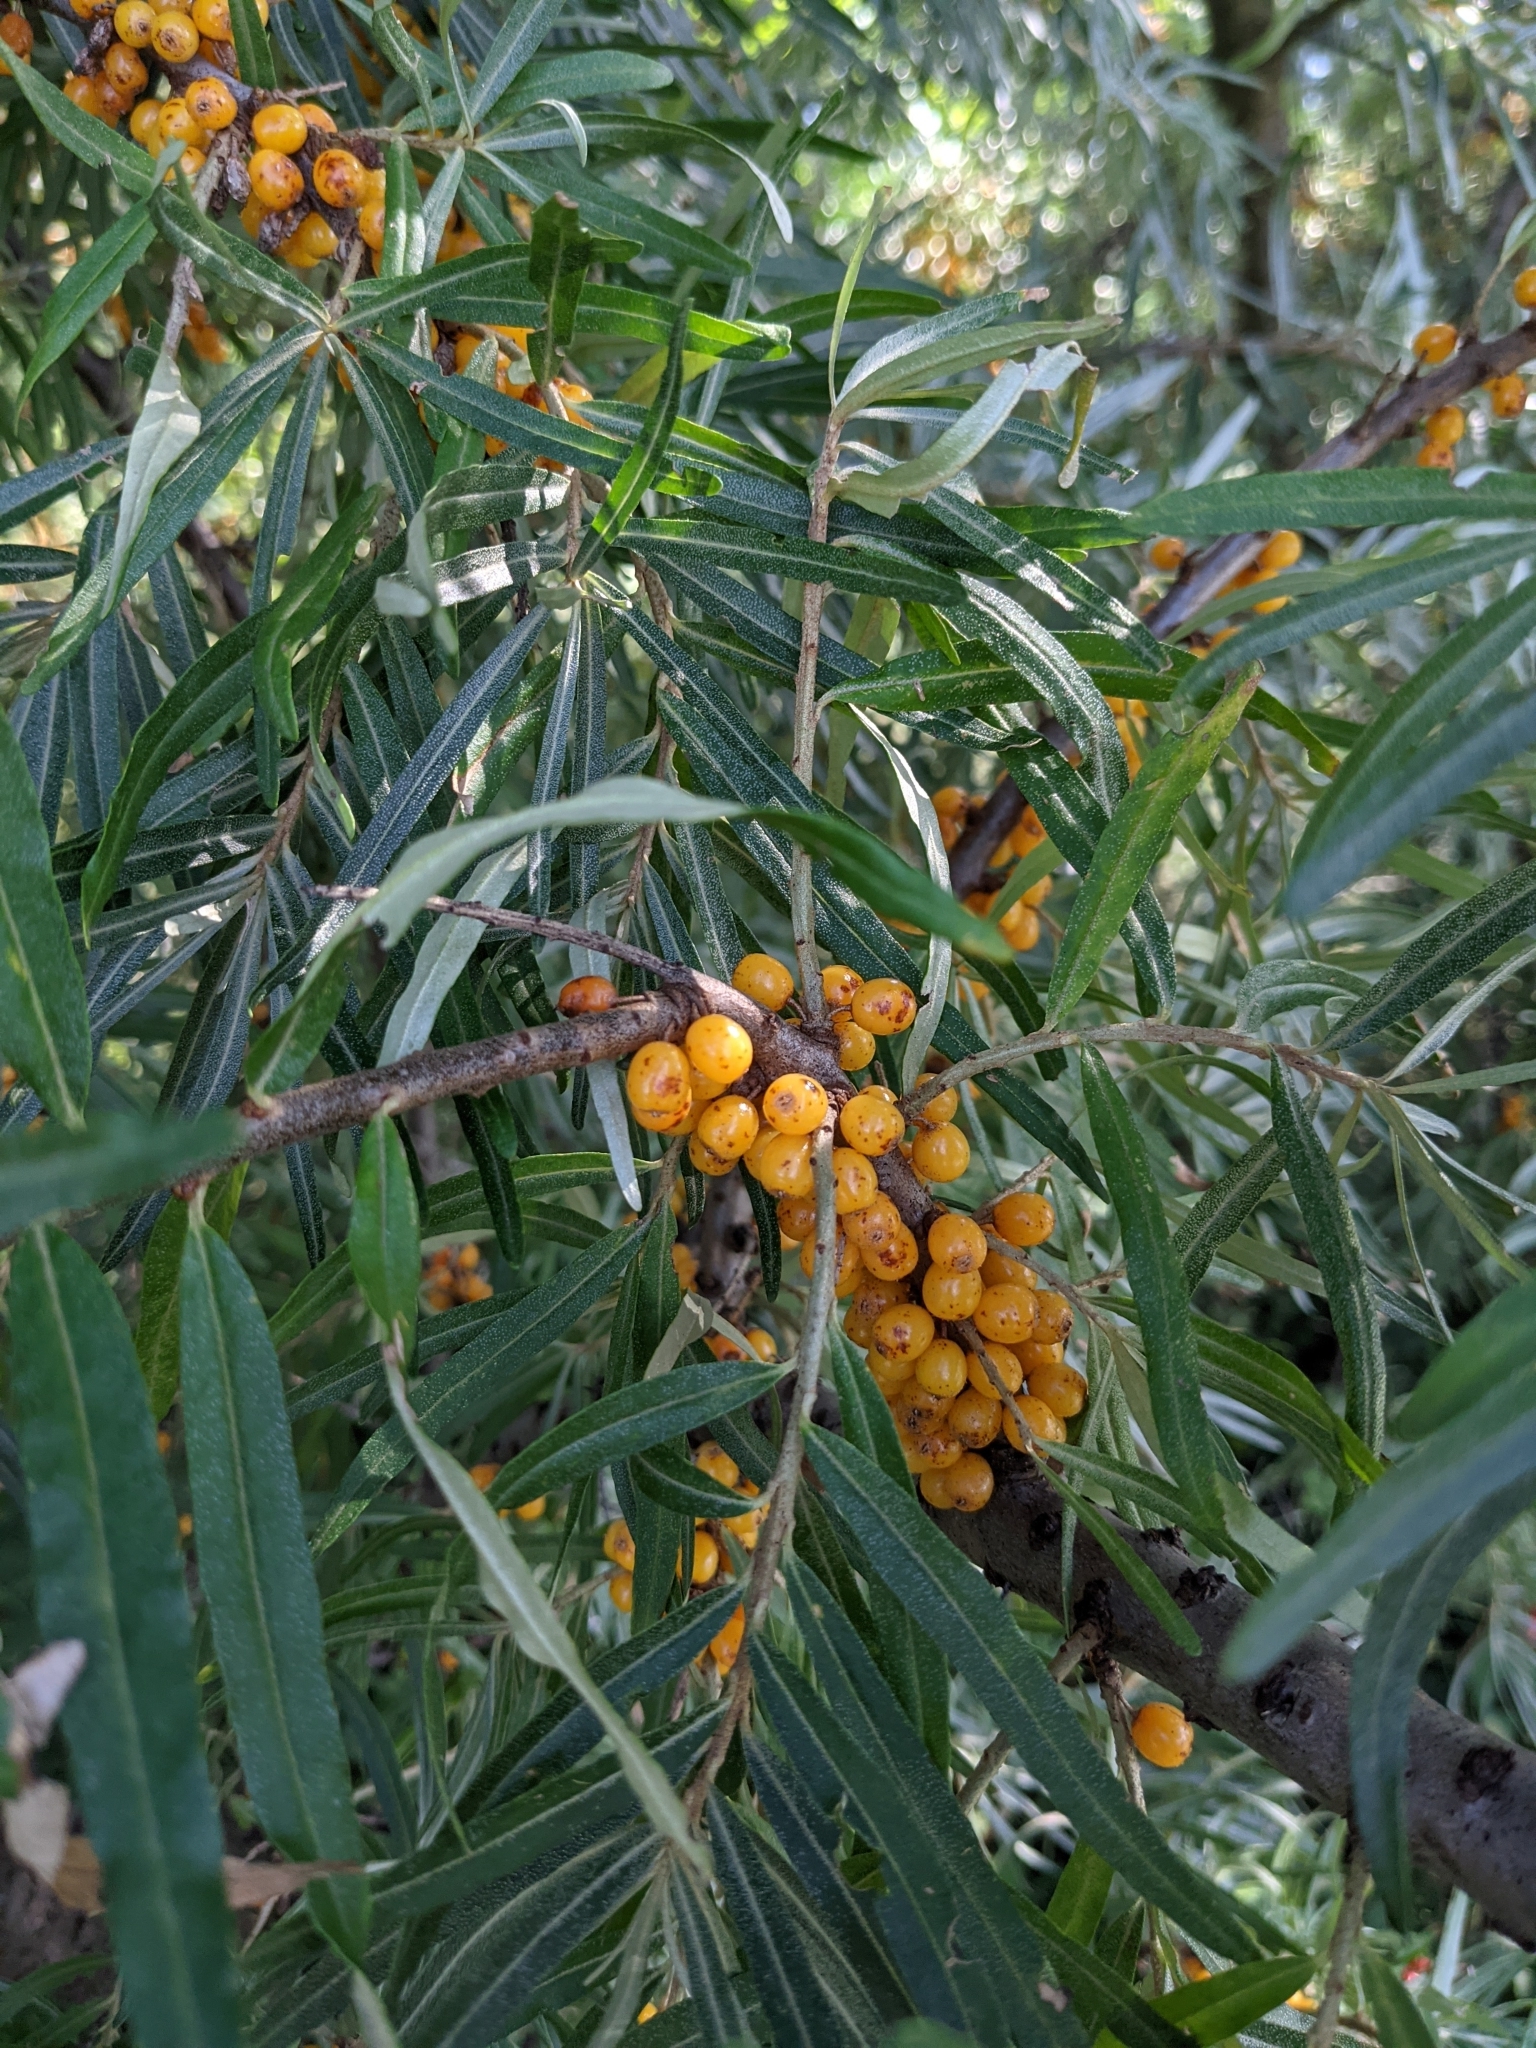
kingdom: Plantae
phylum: Tracheophyta
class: Magnoliopsida
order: Rosales
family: Elaeagnaceae
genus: Hippophae
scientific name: Hippophae rhamnoides
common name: Sea-buckthorn
